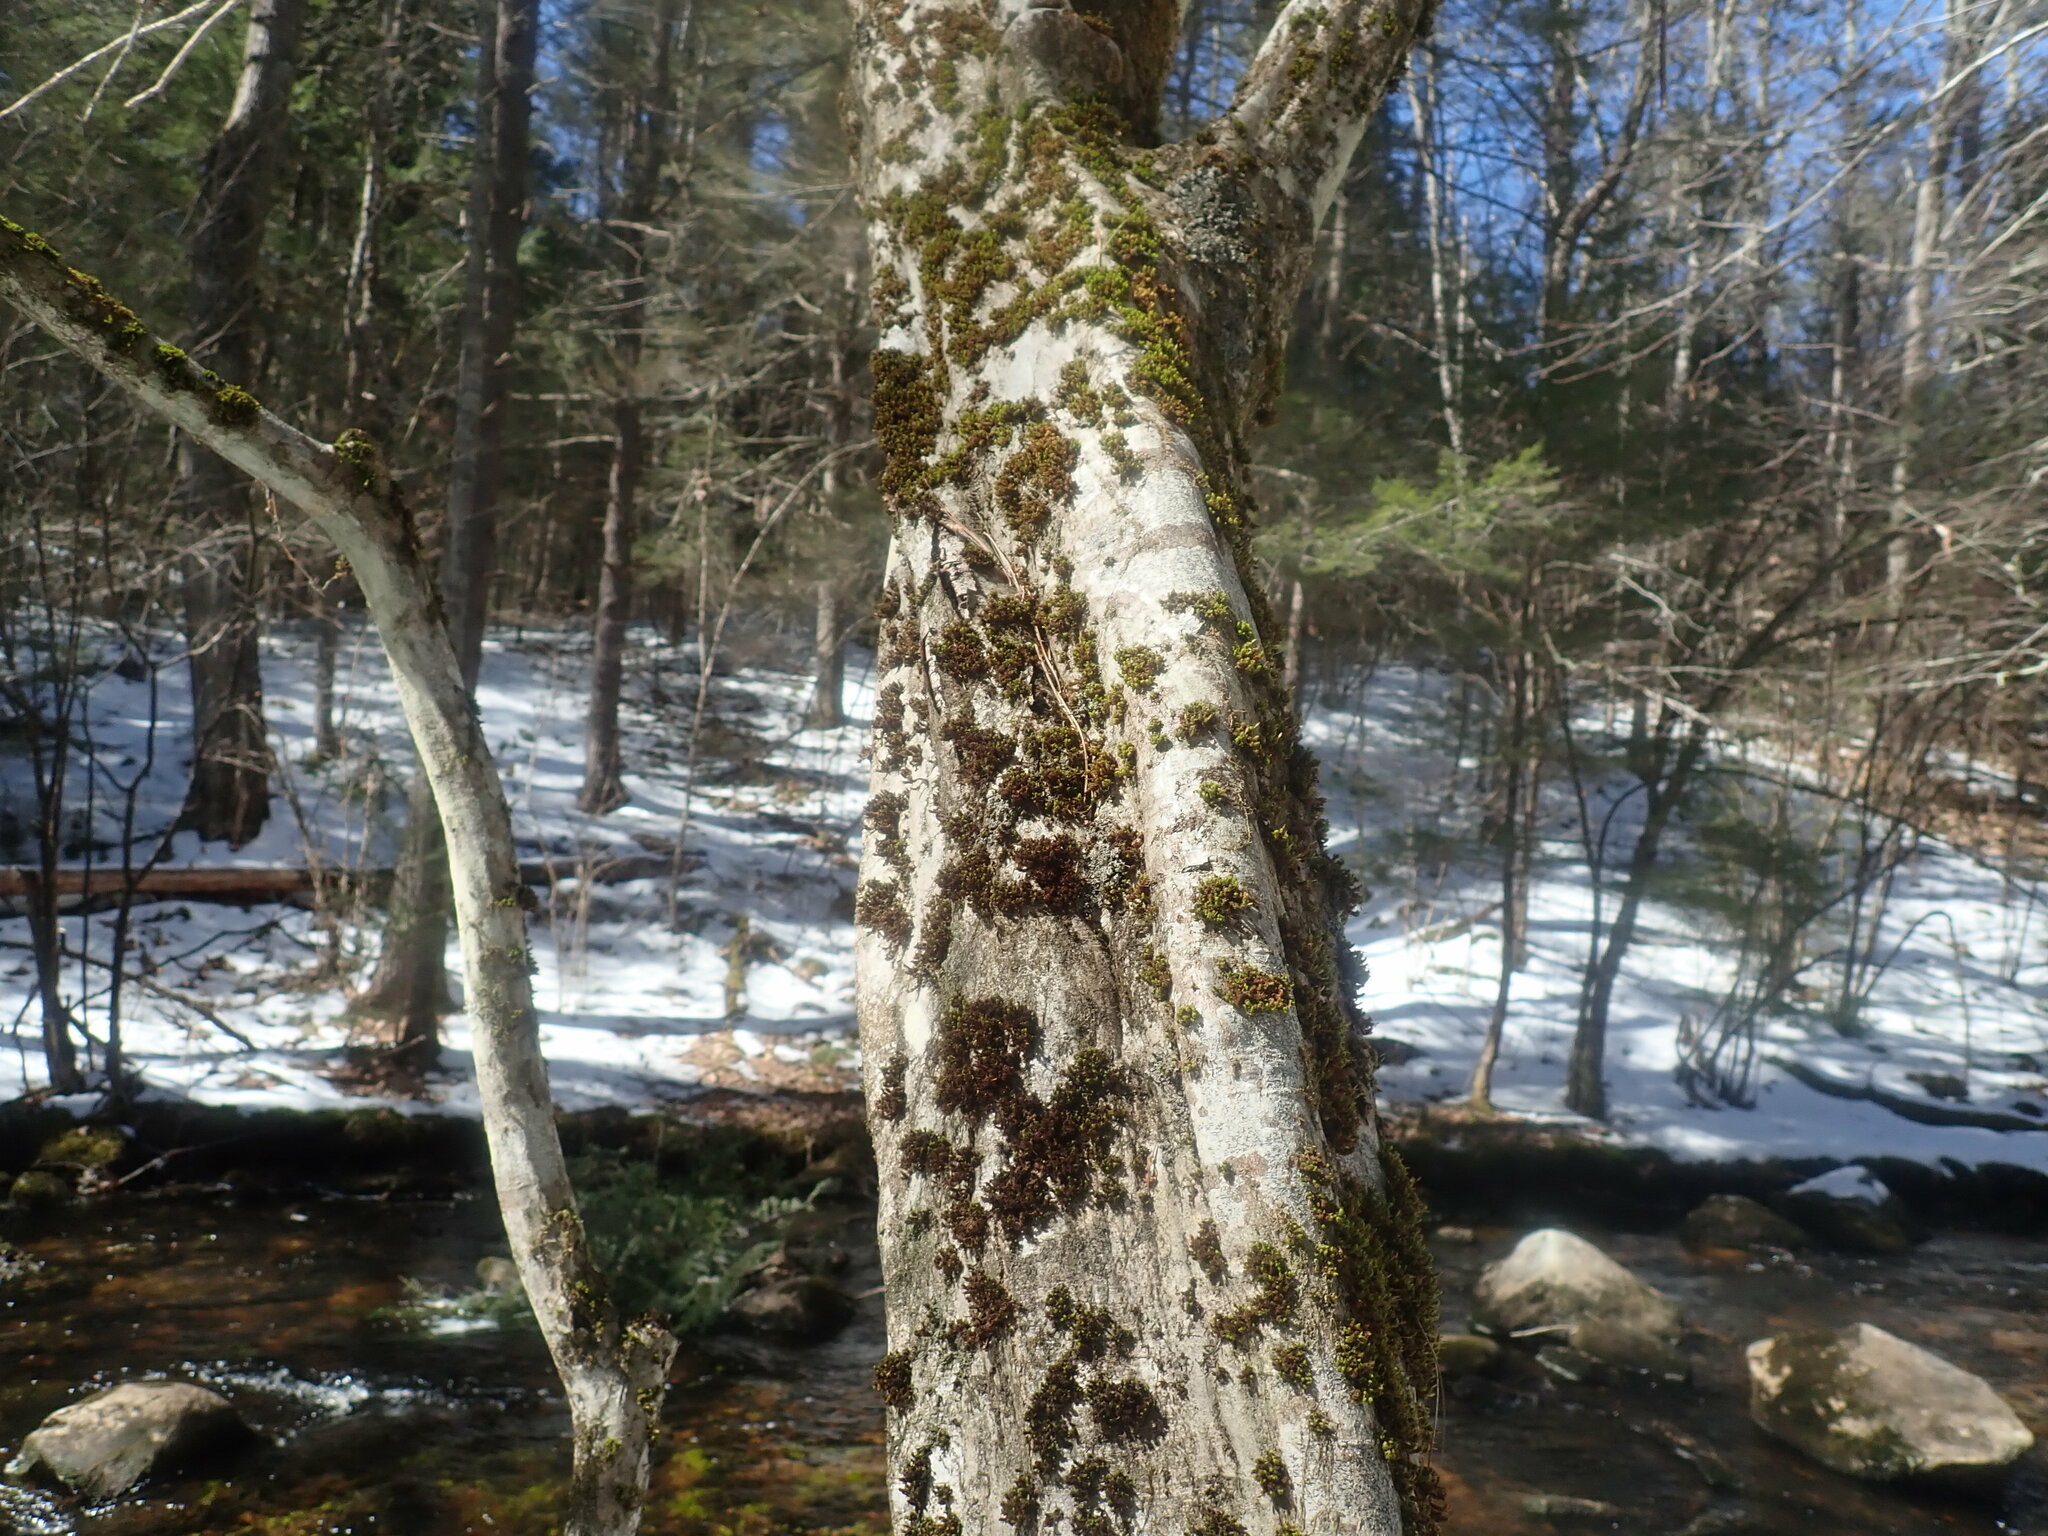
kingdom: Plantae
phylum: Tracheophyta
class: Magnoliopsida
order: Fagales
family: Betulaceae
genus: Carpinus
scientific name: Carpinus caroliniana
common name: American hornbeam
